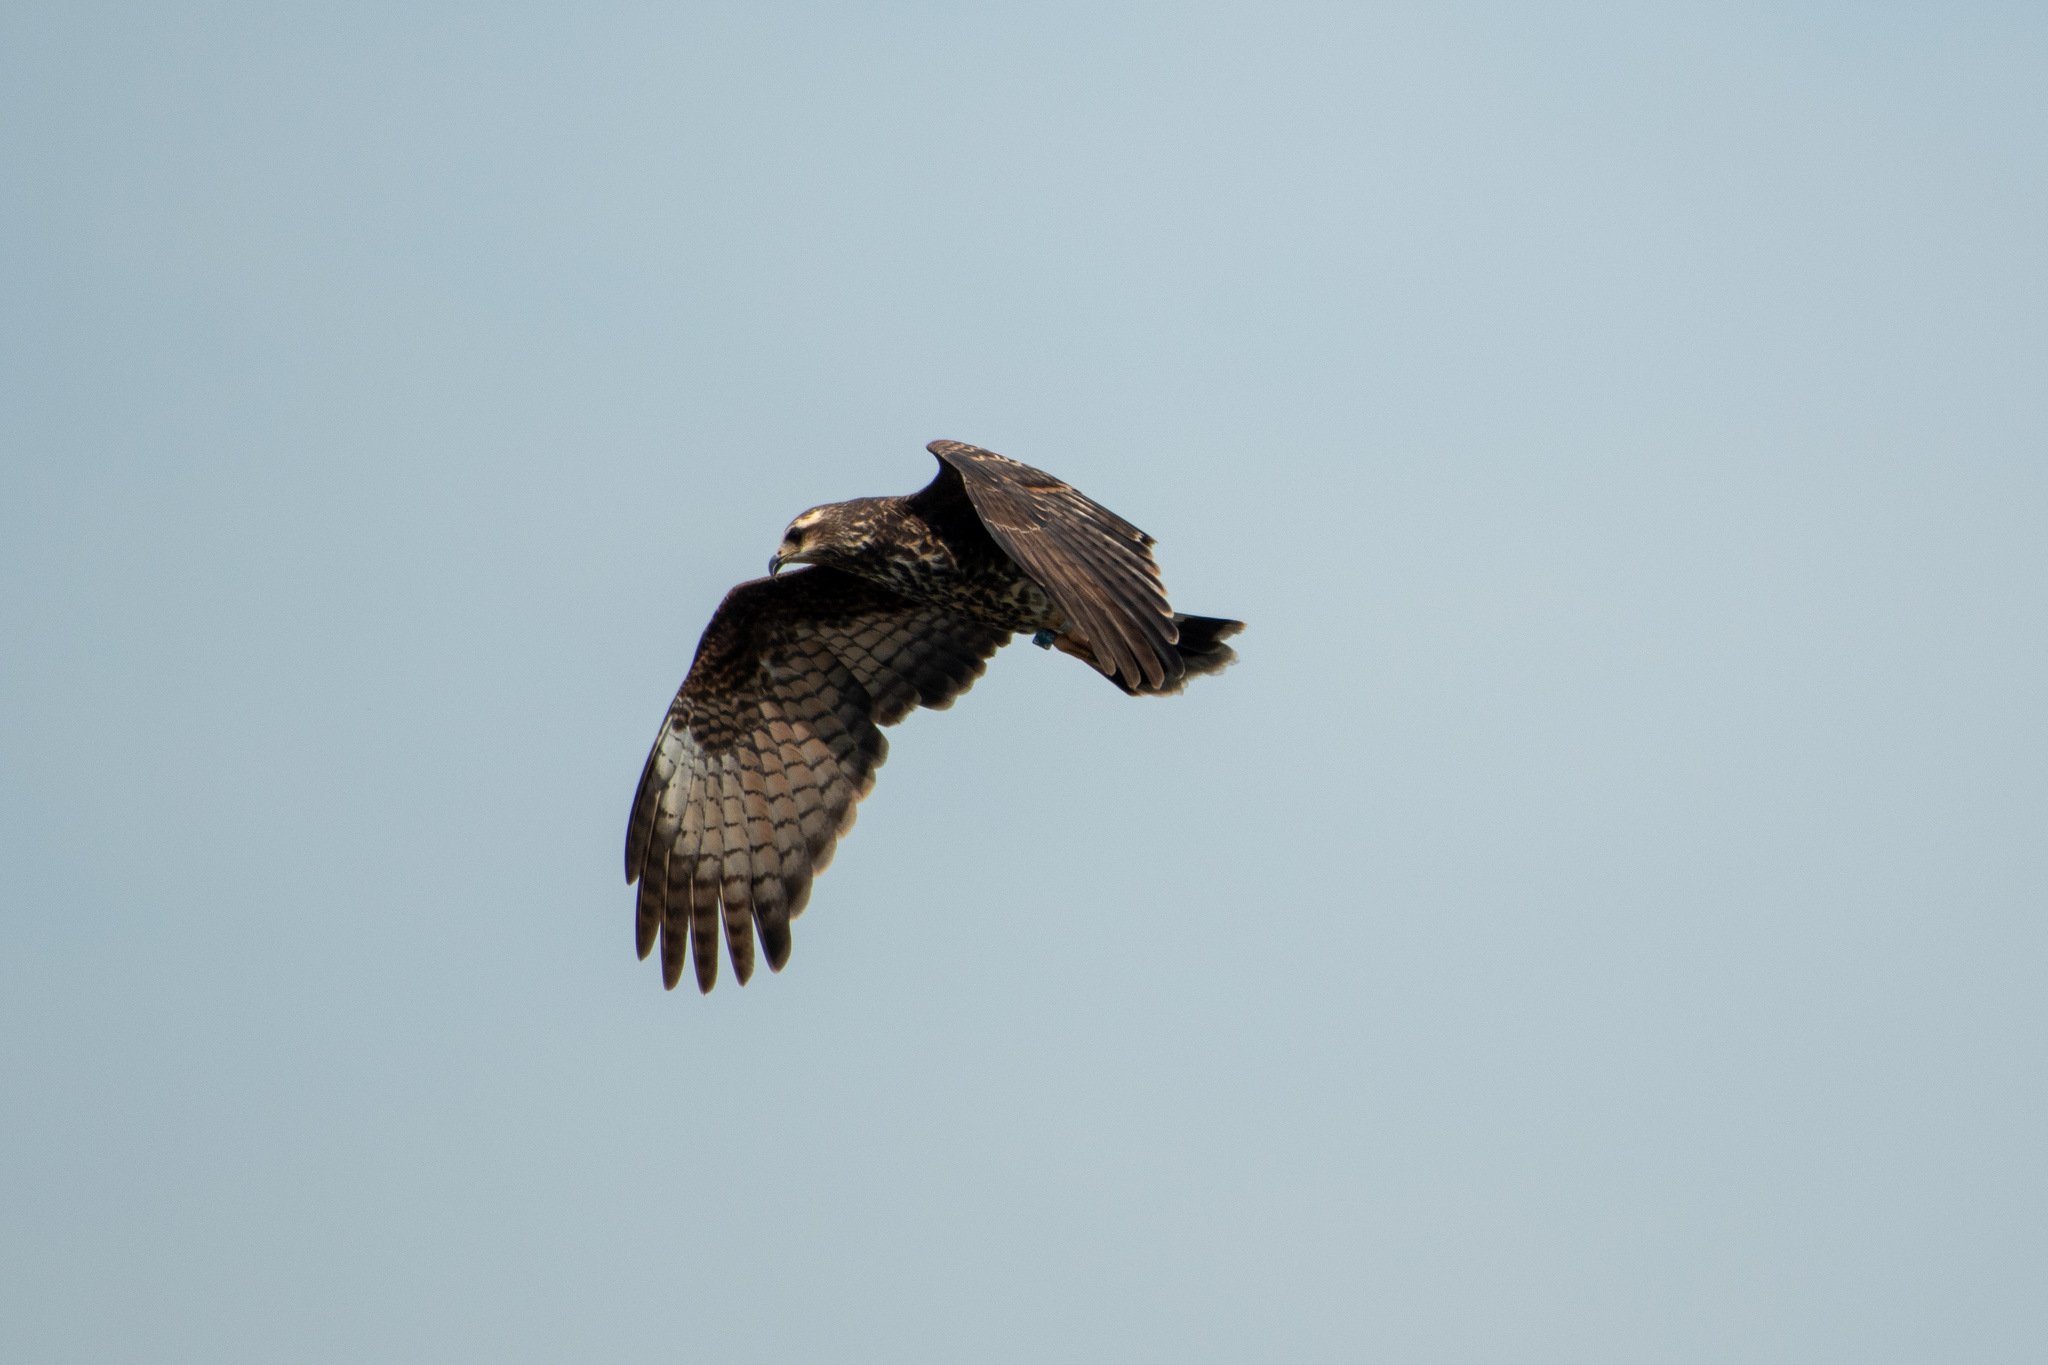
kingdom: Animalia
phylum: Chordata
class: Aves
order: Accipitriformes
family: Accipitridae
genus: Rostrhamus
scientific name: Rostrhamus sociabilis
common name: Snail kite
